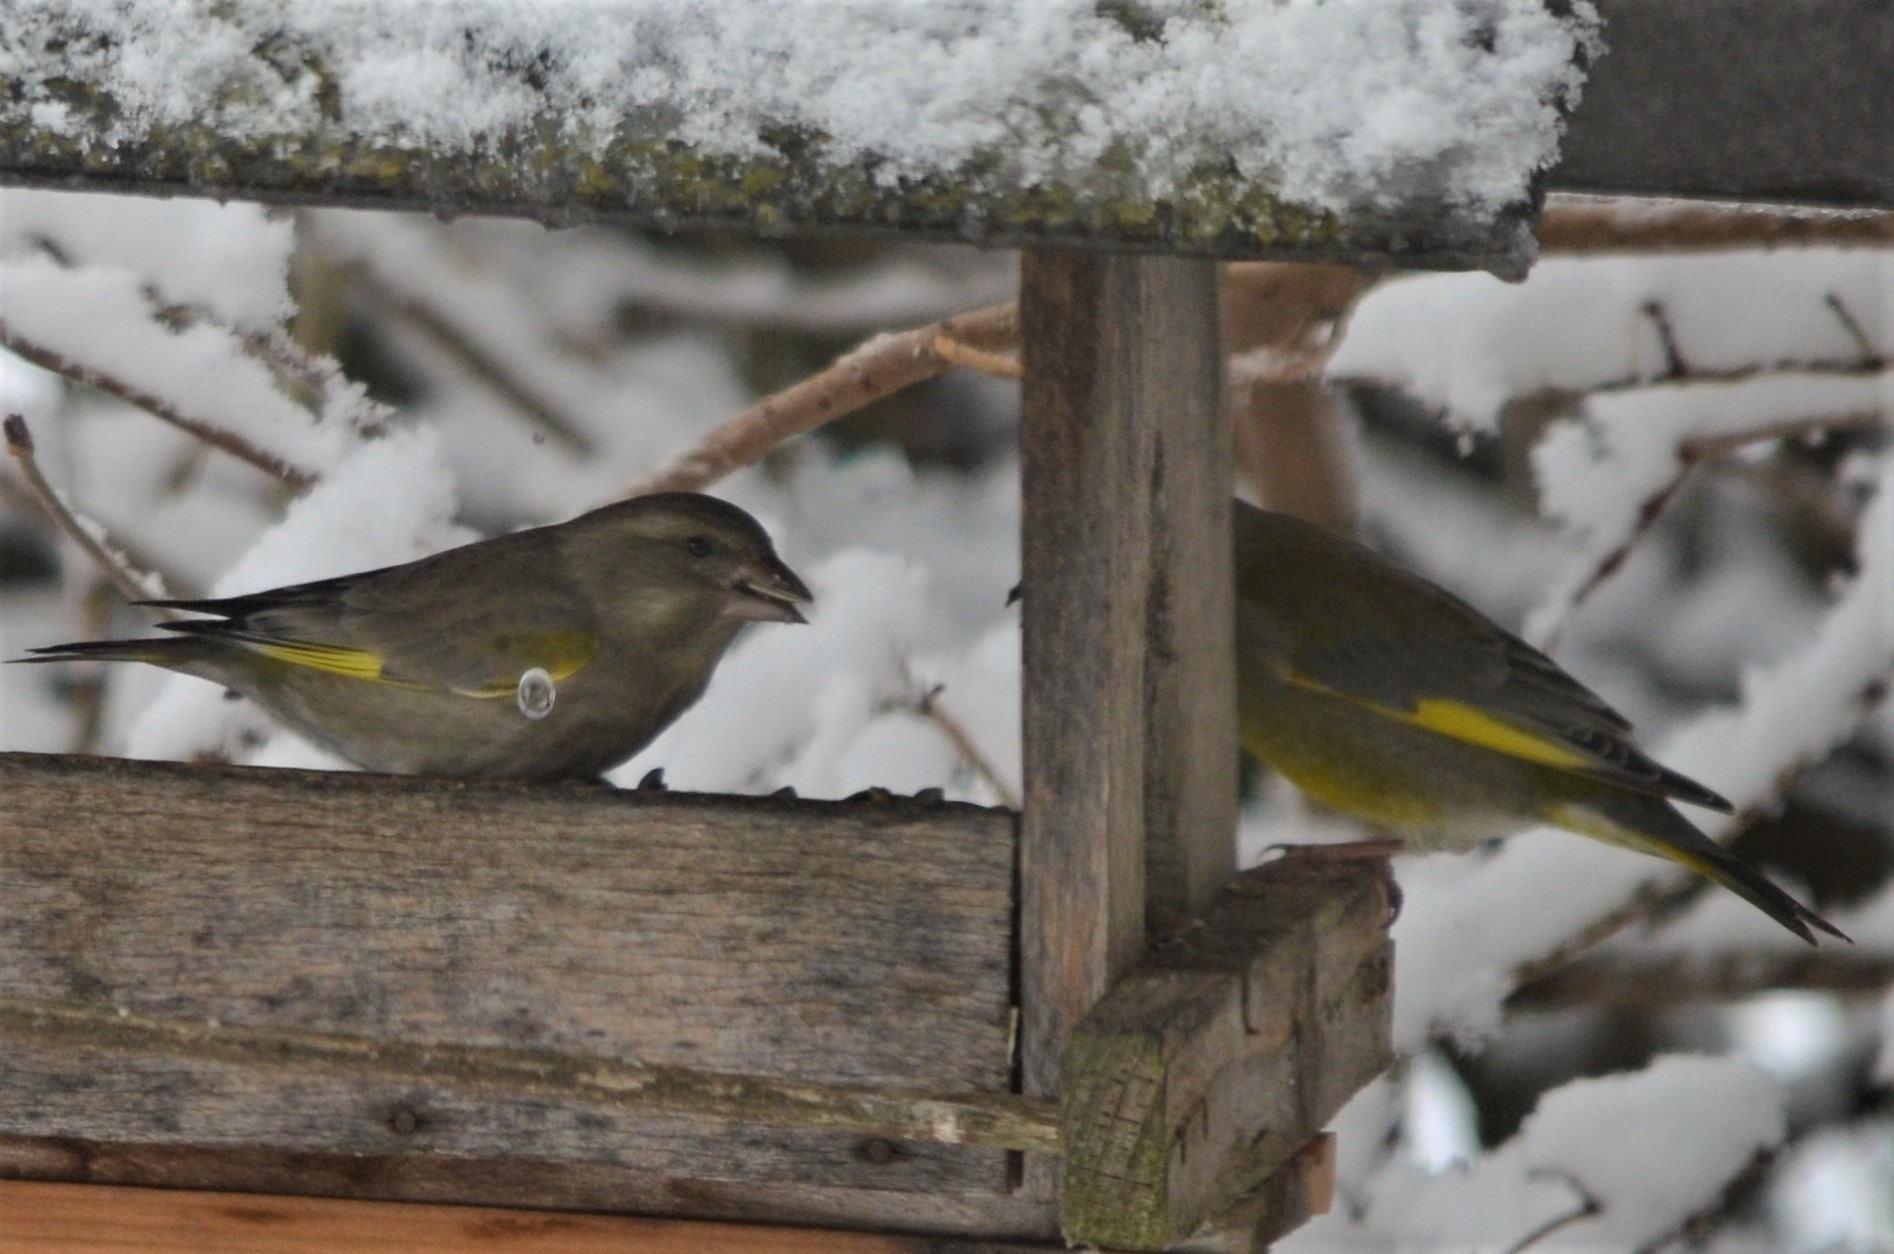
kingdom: Plantae
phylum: Tracheophyta
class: Liliopsida
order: Poales
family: Poaceae
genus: Chloris
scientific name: Chloris chloris
